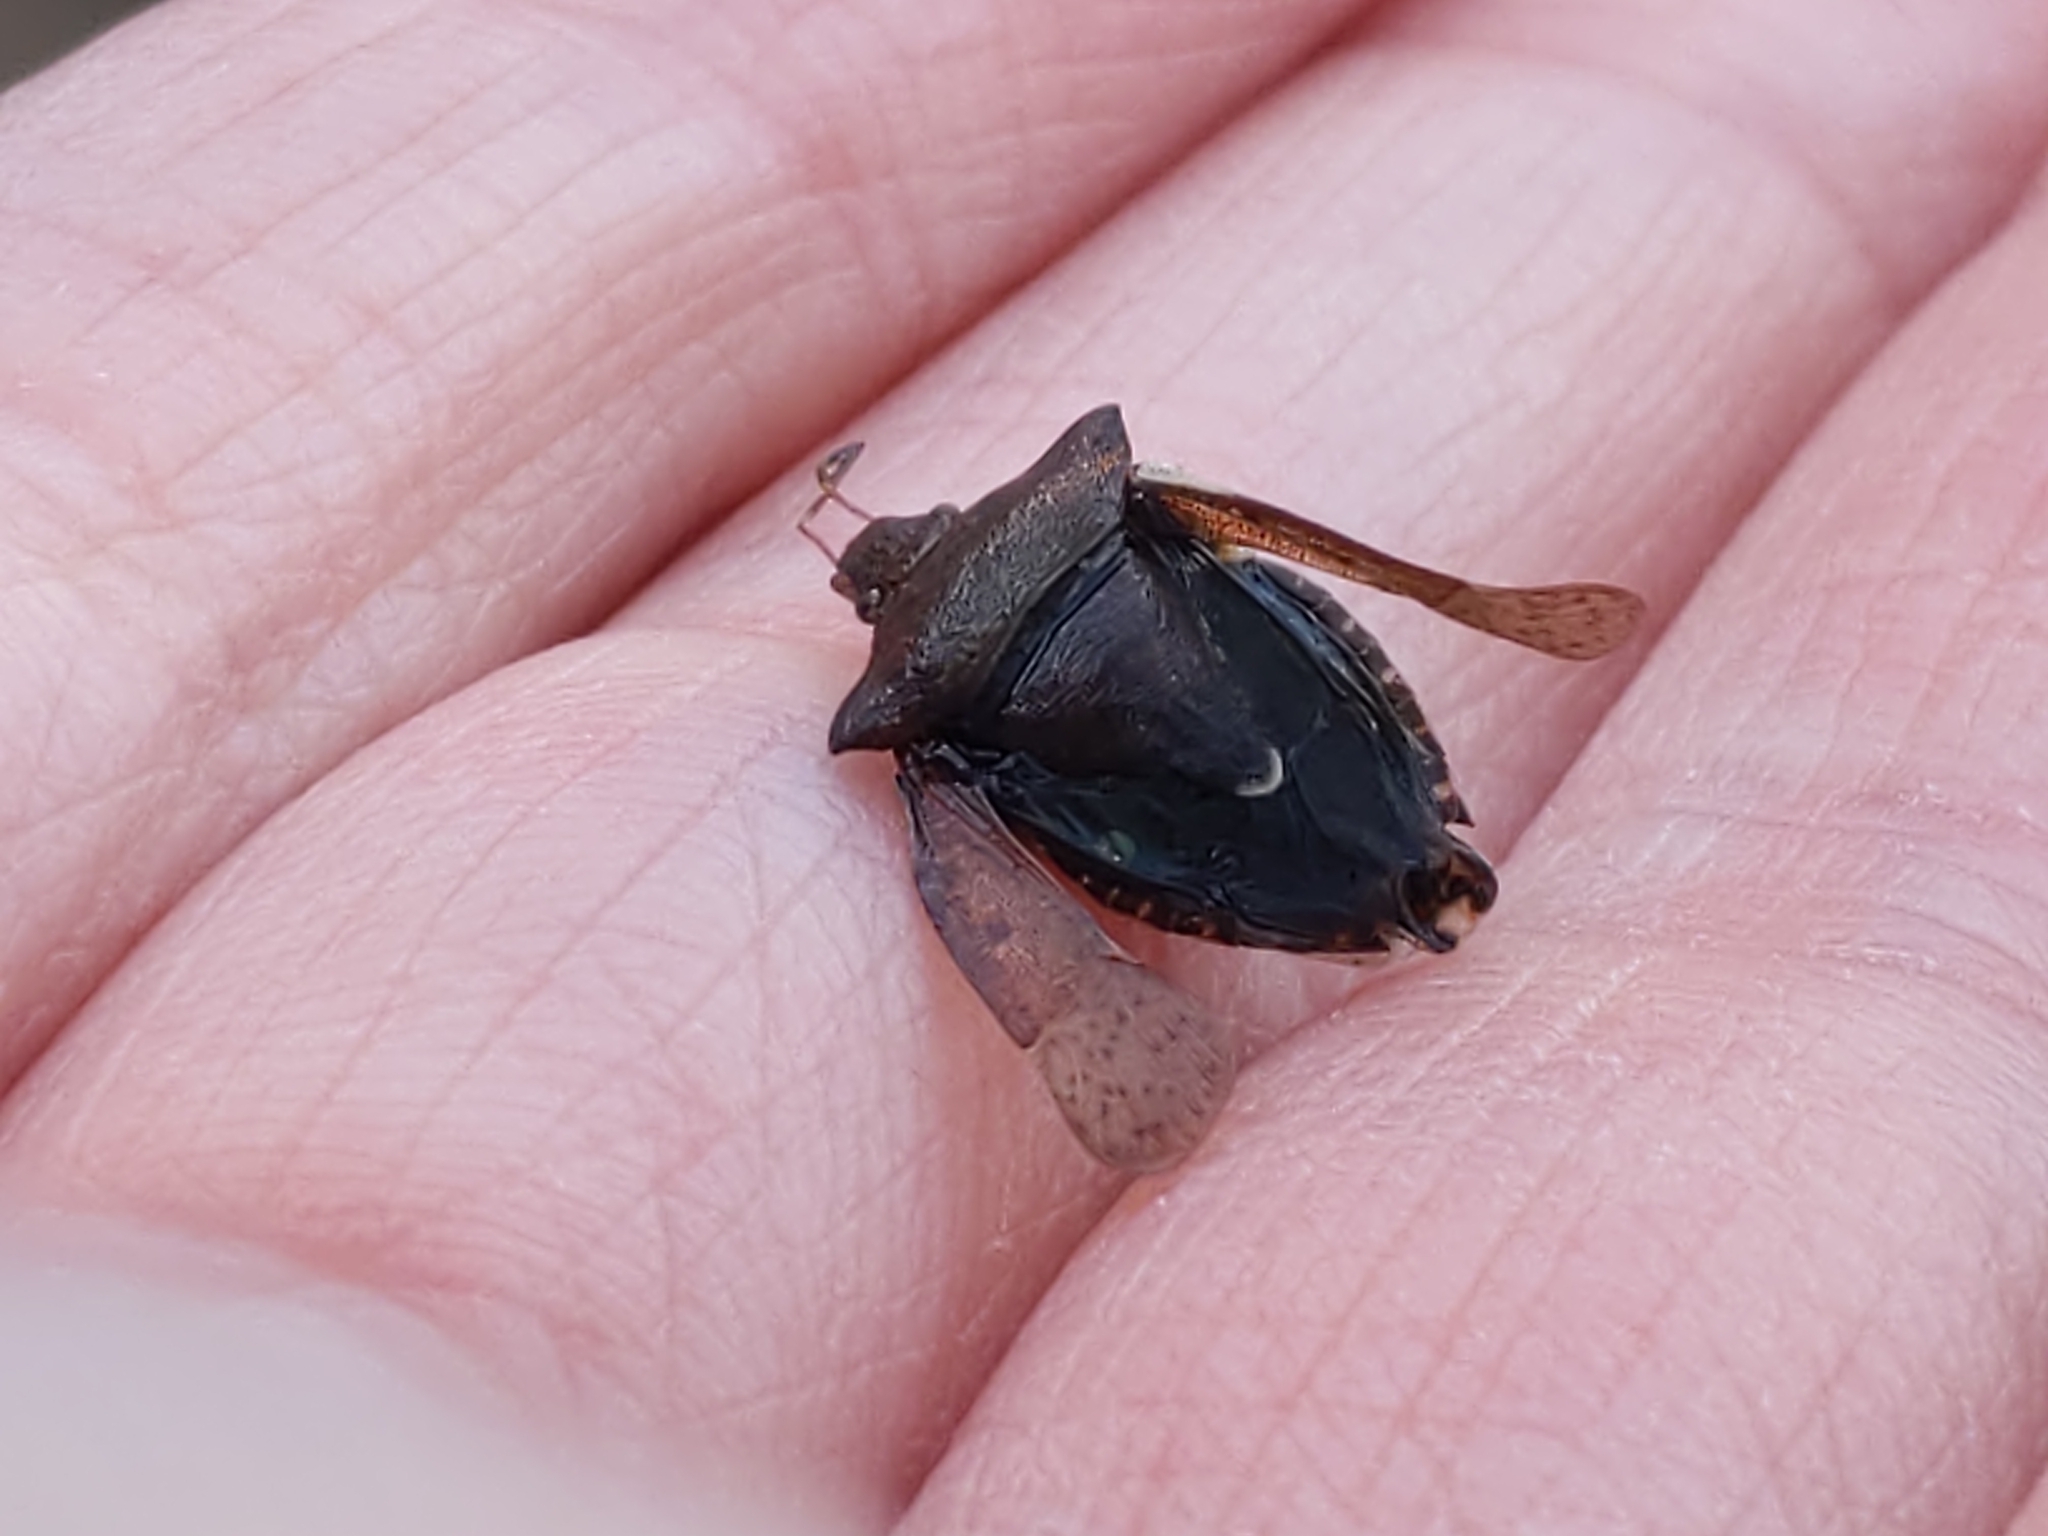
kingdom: Animalia
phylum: Arthropoda
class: Insecta
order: Hemiptera
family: Pentatomidae
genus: Euschistus
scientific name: Euschistus tristigmus
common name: Dusky stink bug
